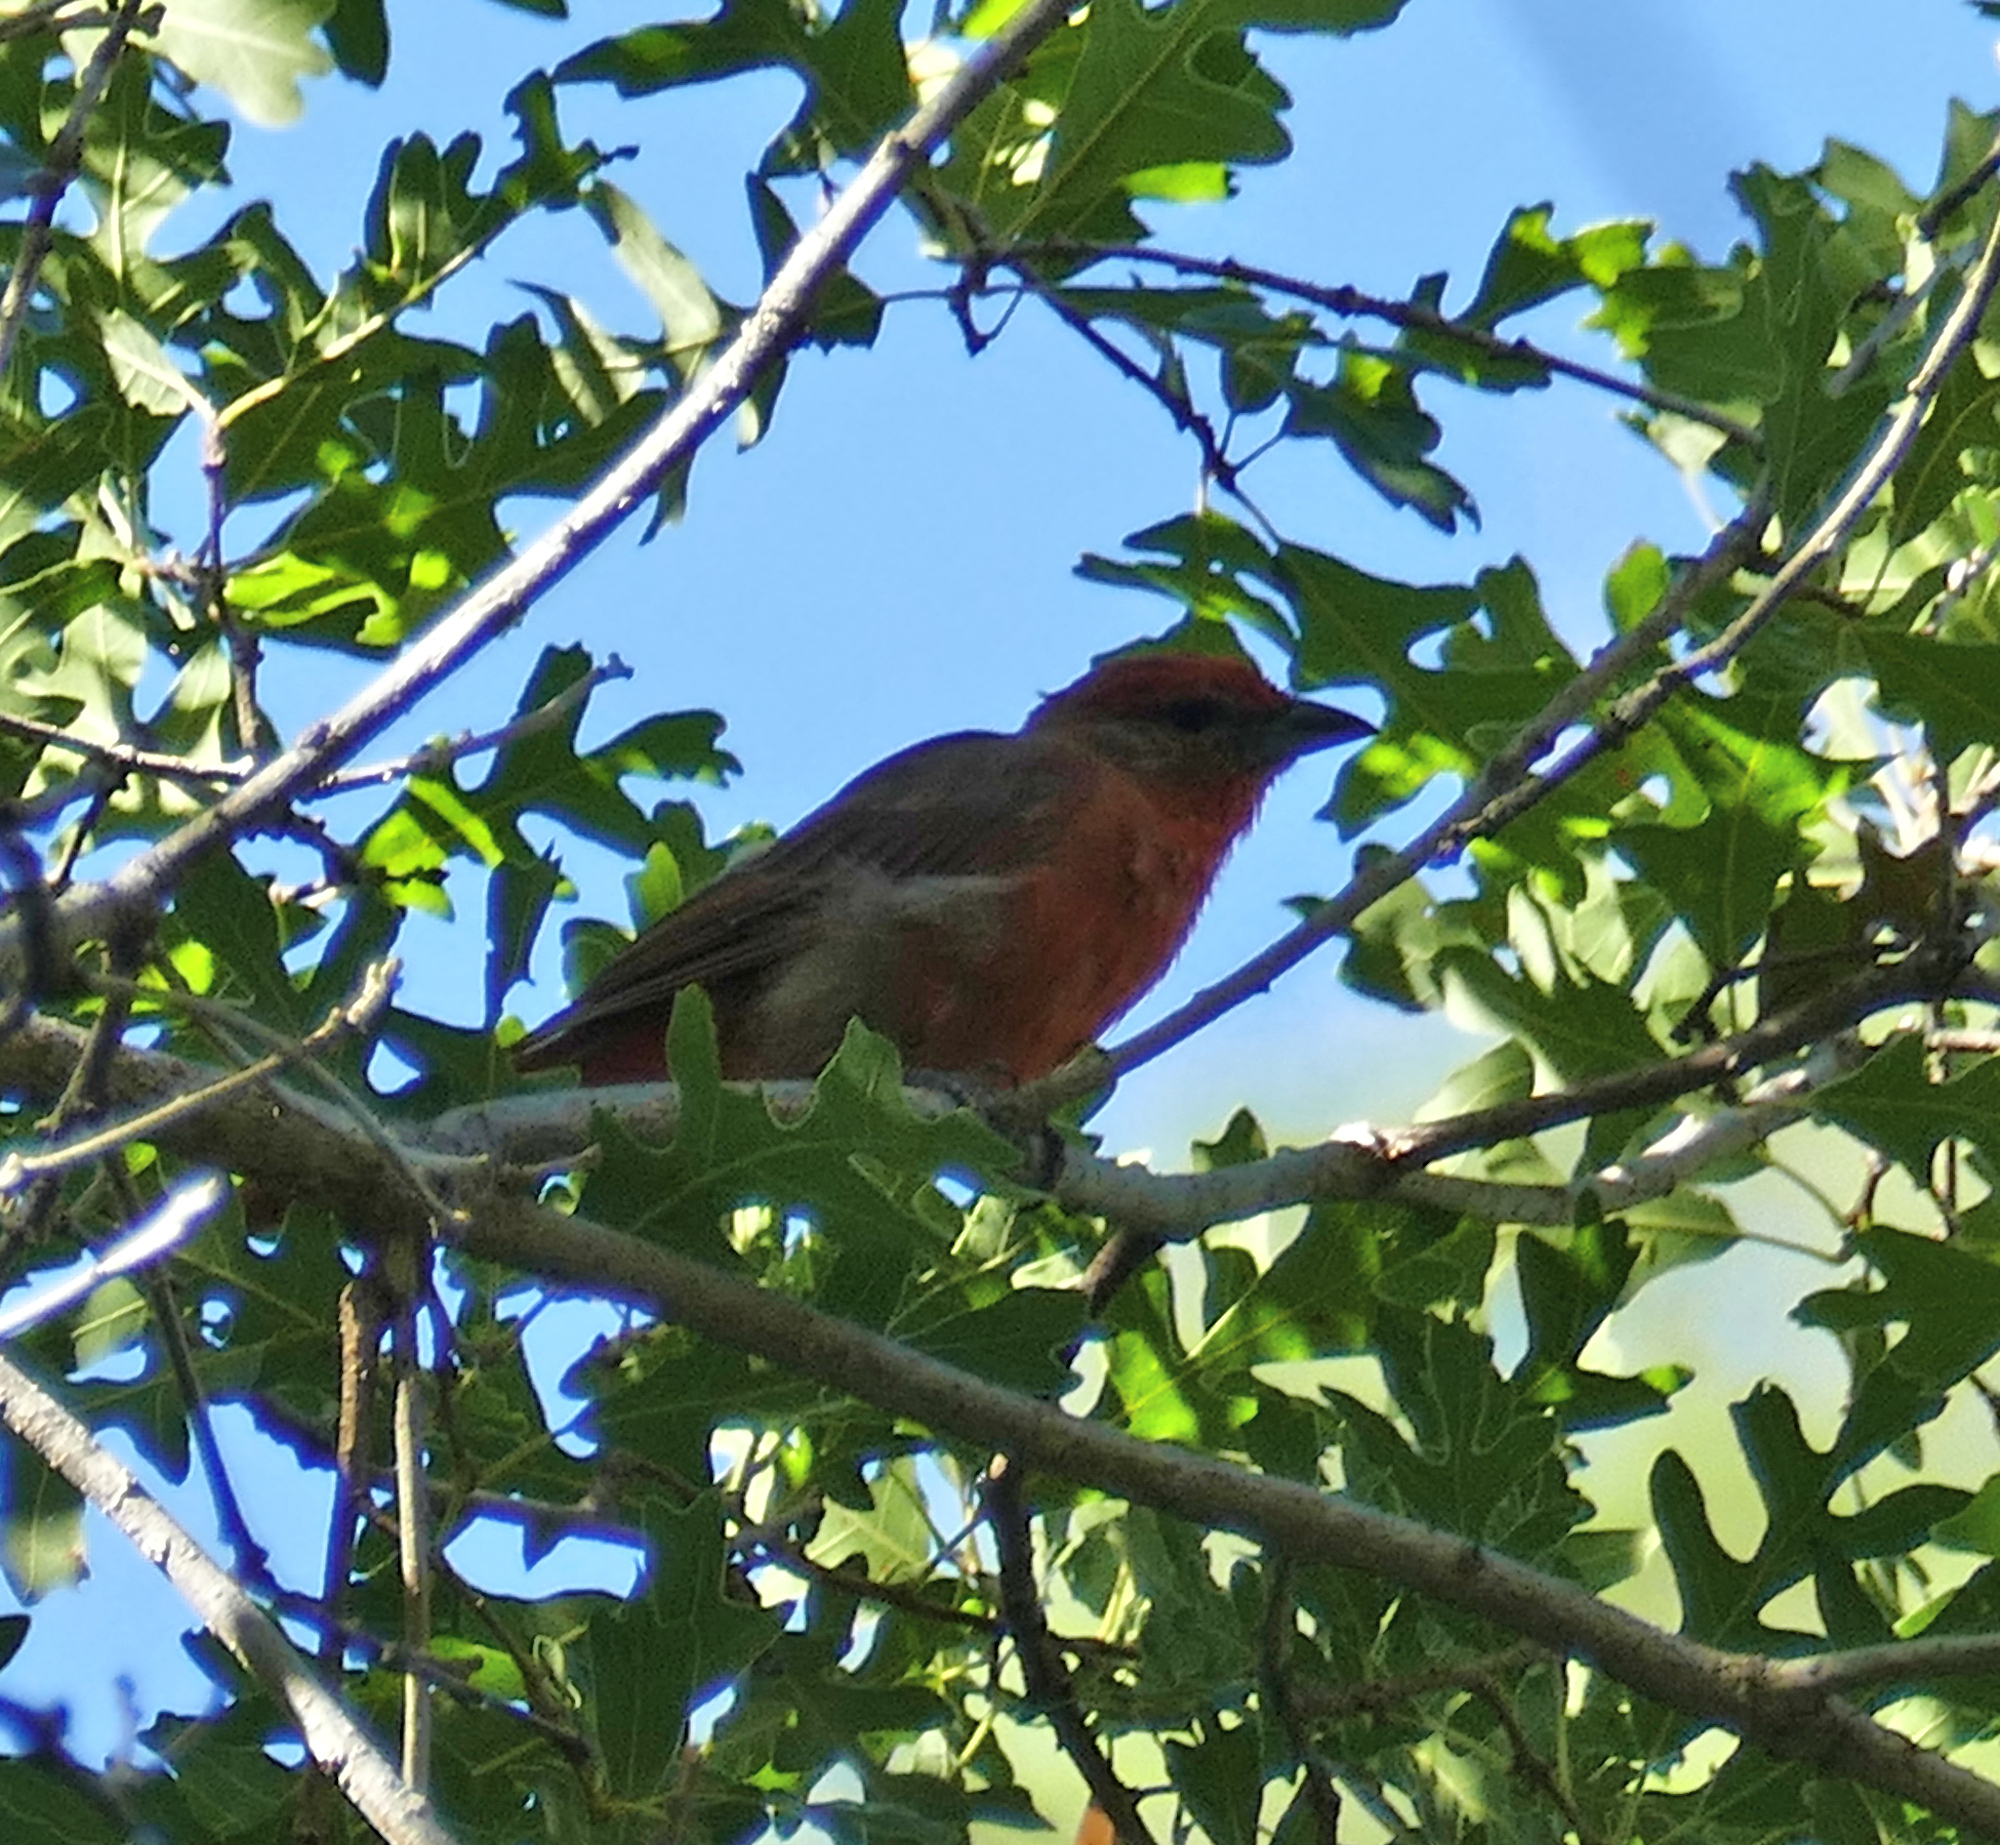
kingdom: Animalia
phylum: Chordata
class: Aves
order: Passeriformes
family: Cardinalidae
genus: Piranga
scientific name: Piranga flava
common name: Red tanager
